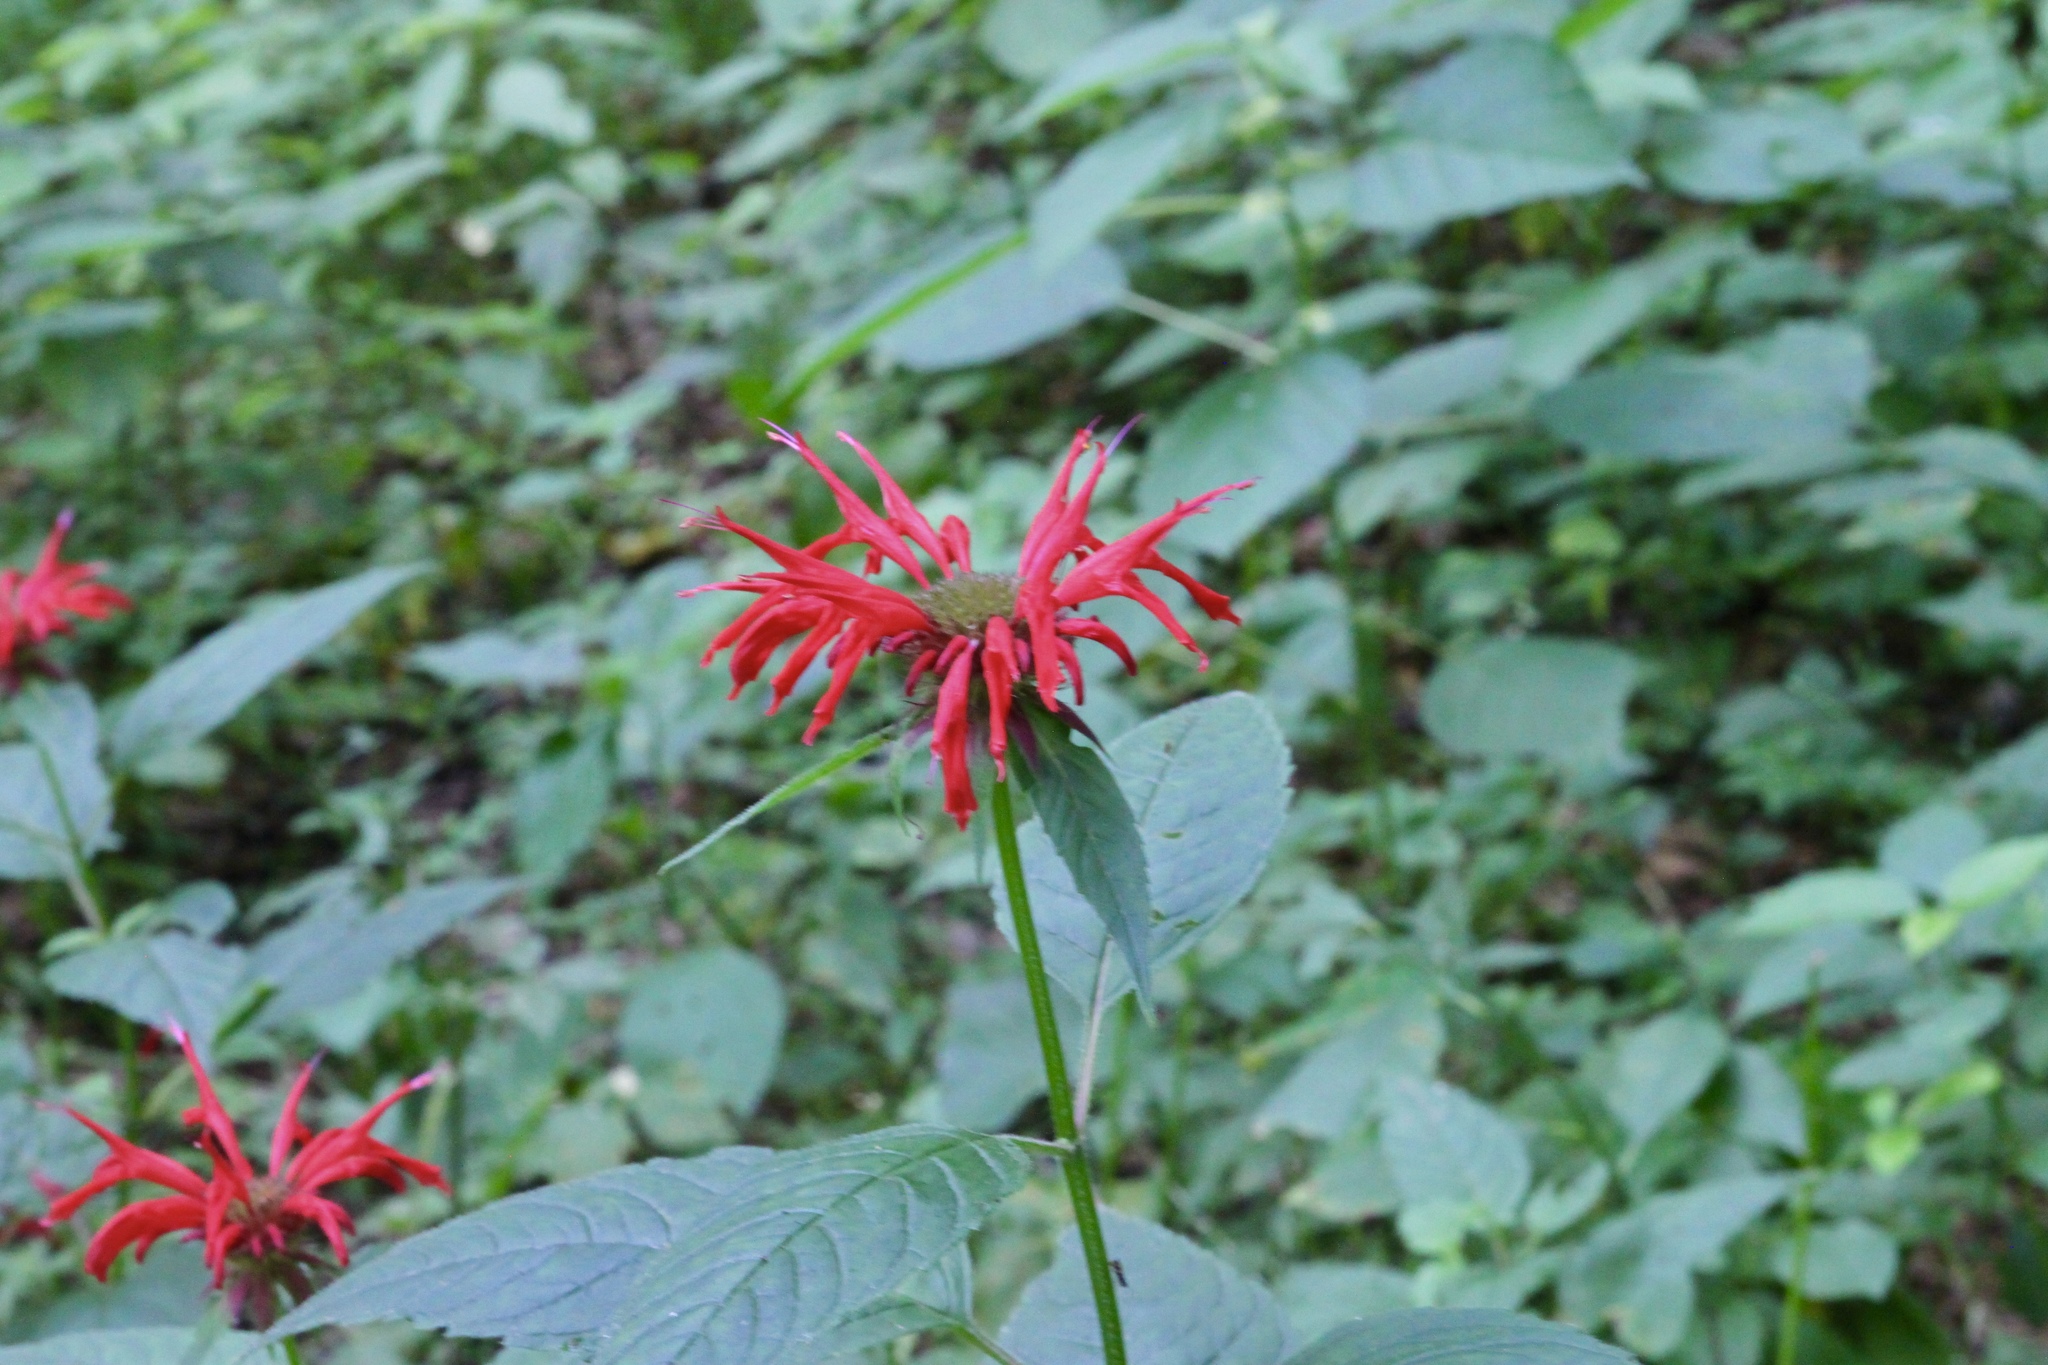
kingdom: Plantae
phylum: Tracheophyta
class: Magnoliopsida
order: Lamiales
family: Lamiaceae
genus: Monarda
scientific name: Monarda didyma
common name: Beebalm
